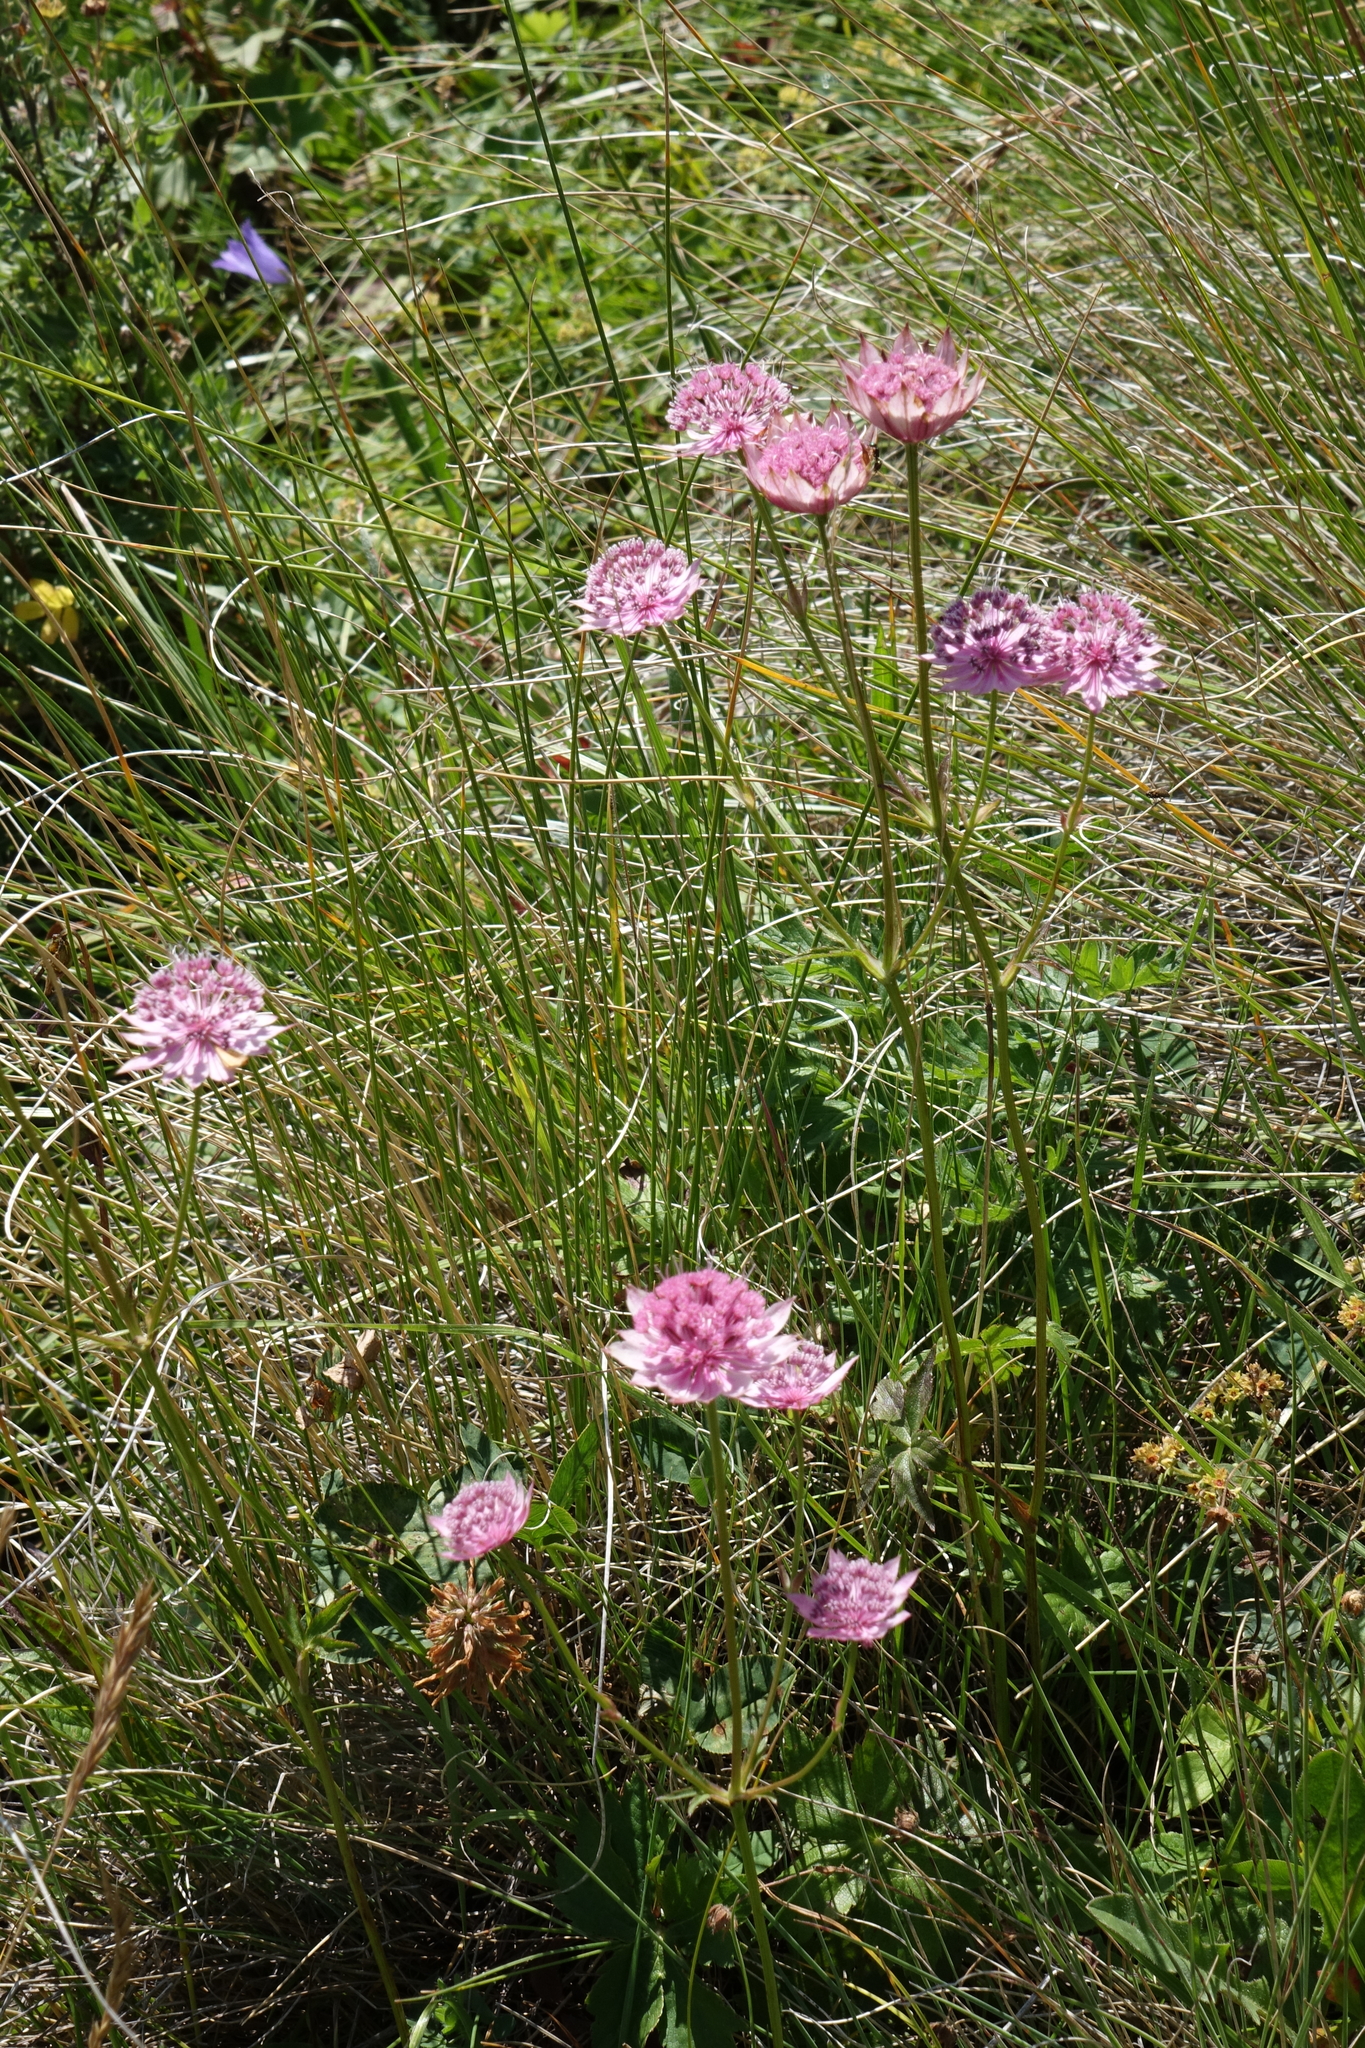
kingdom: Plantae
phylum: Tracheophyta
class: Magnoliopsida
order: Apiales
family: Apiaceae
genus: Astrantia
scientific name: Astrantia trifida
